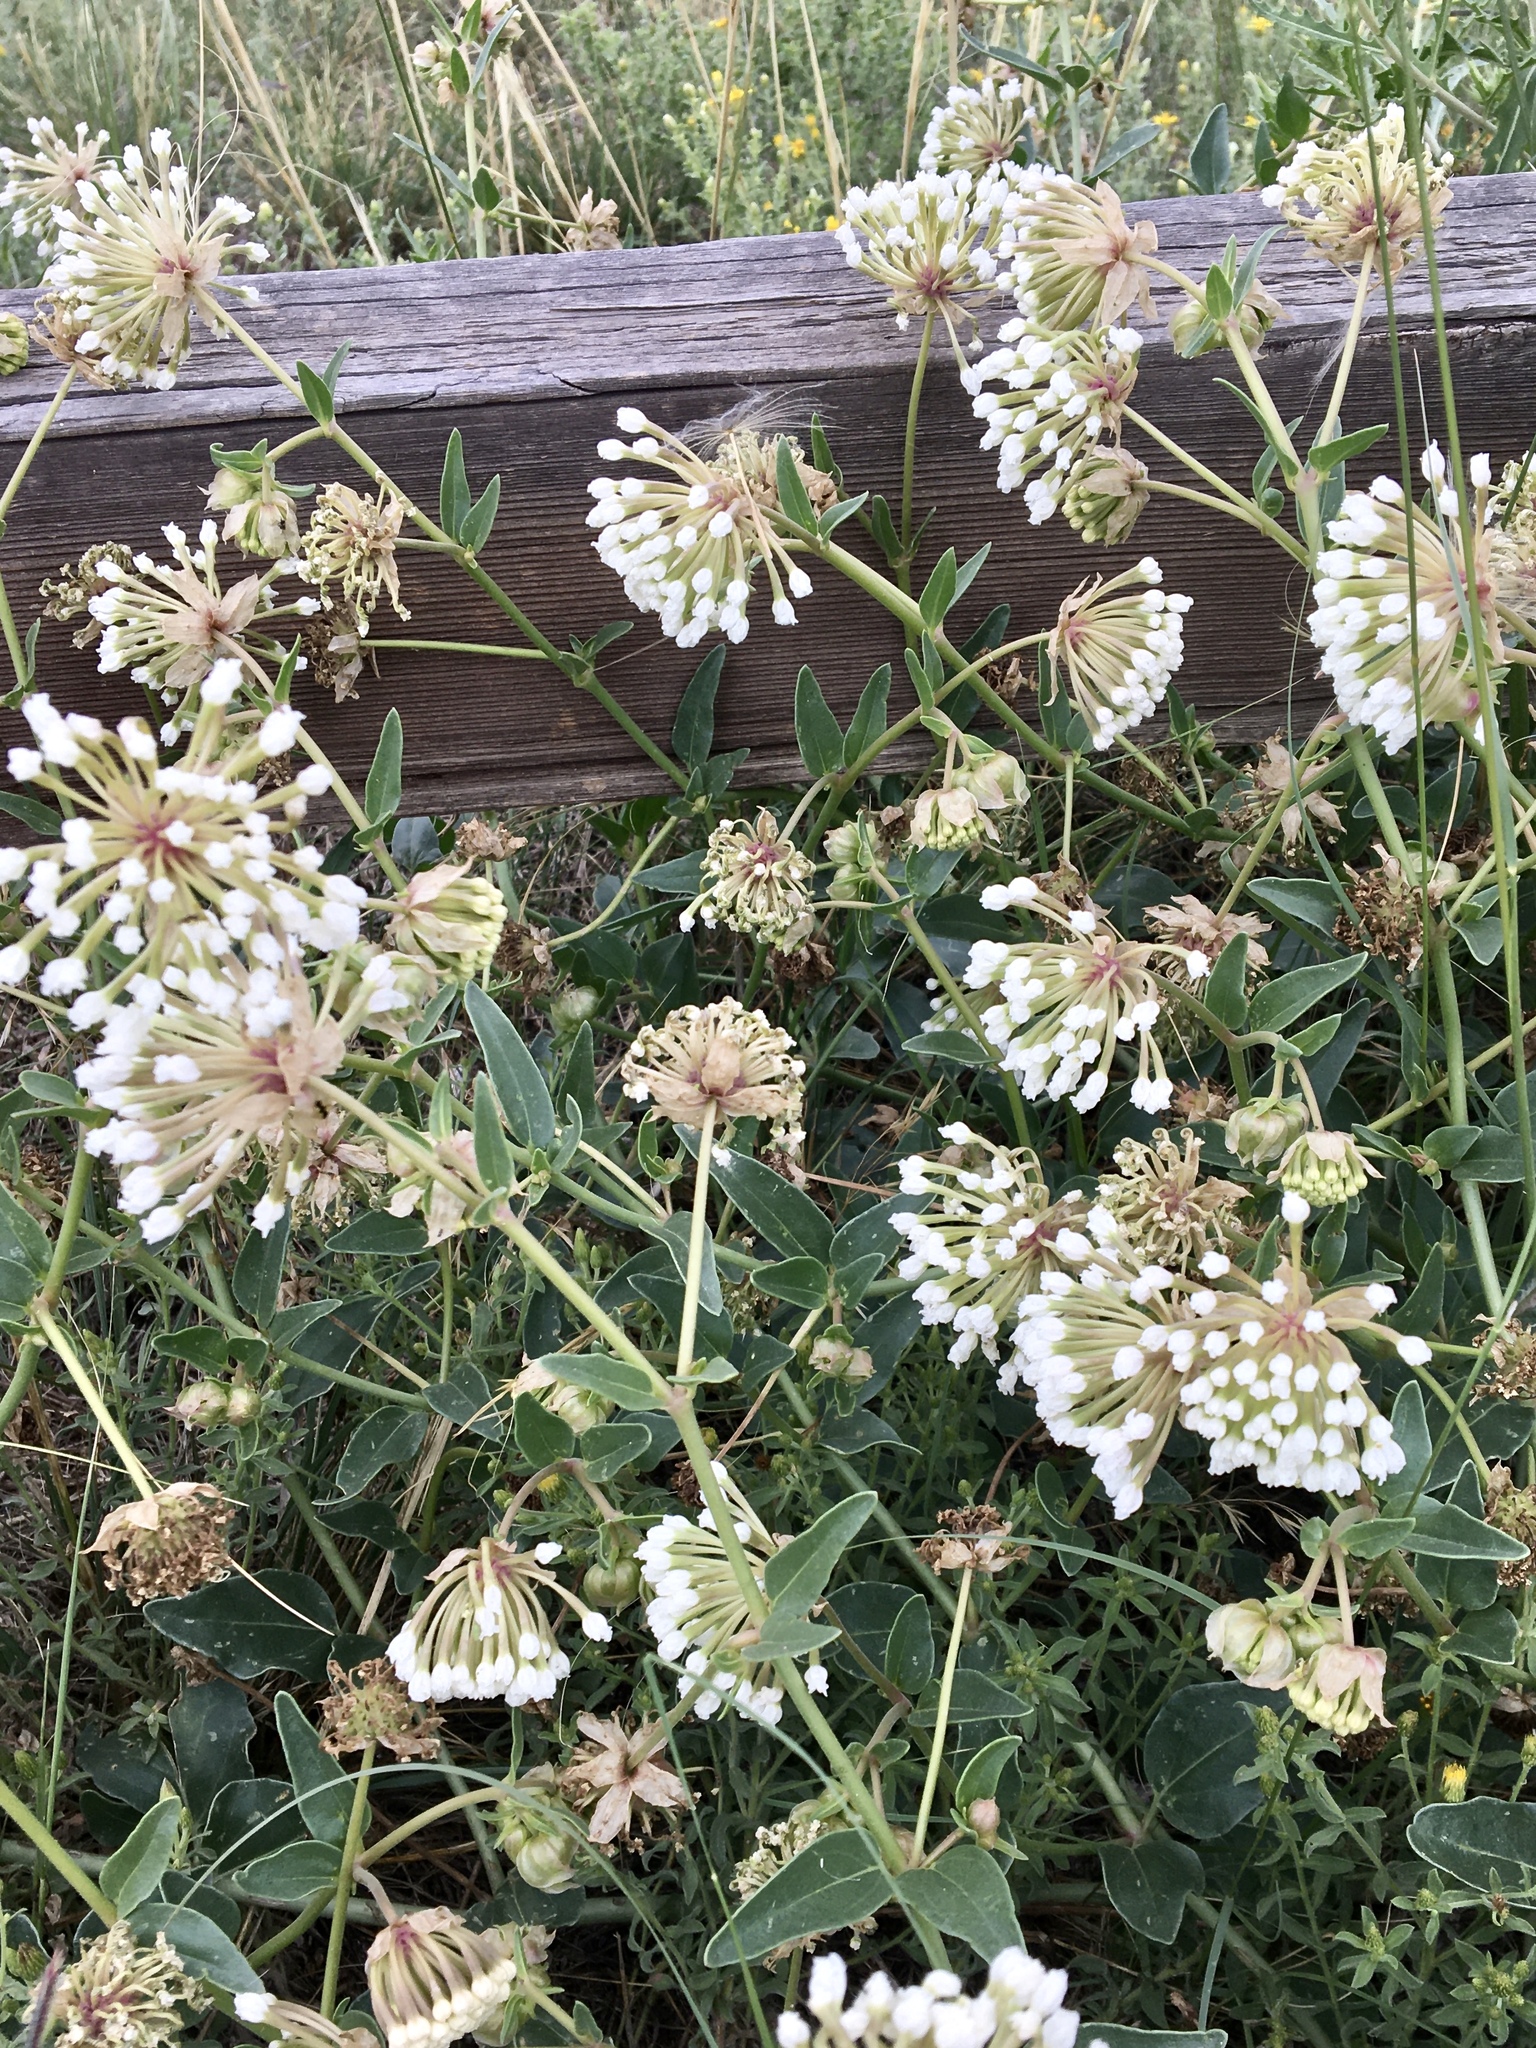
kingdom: Plantae
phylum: Tracheophyta
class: Magnoliopsida
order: Caryophyllales
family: Nyctaginaceae
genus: Abronia
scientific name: Abronia fragrans
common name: Fragrant sand-verbena
